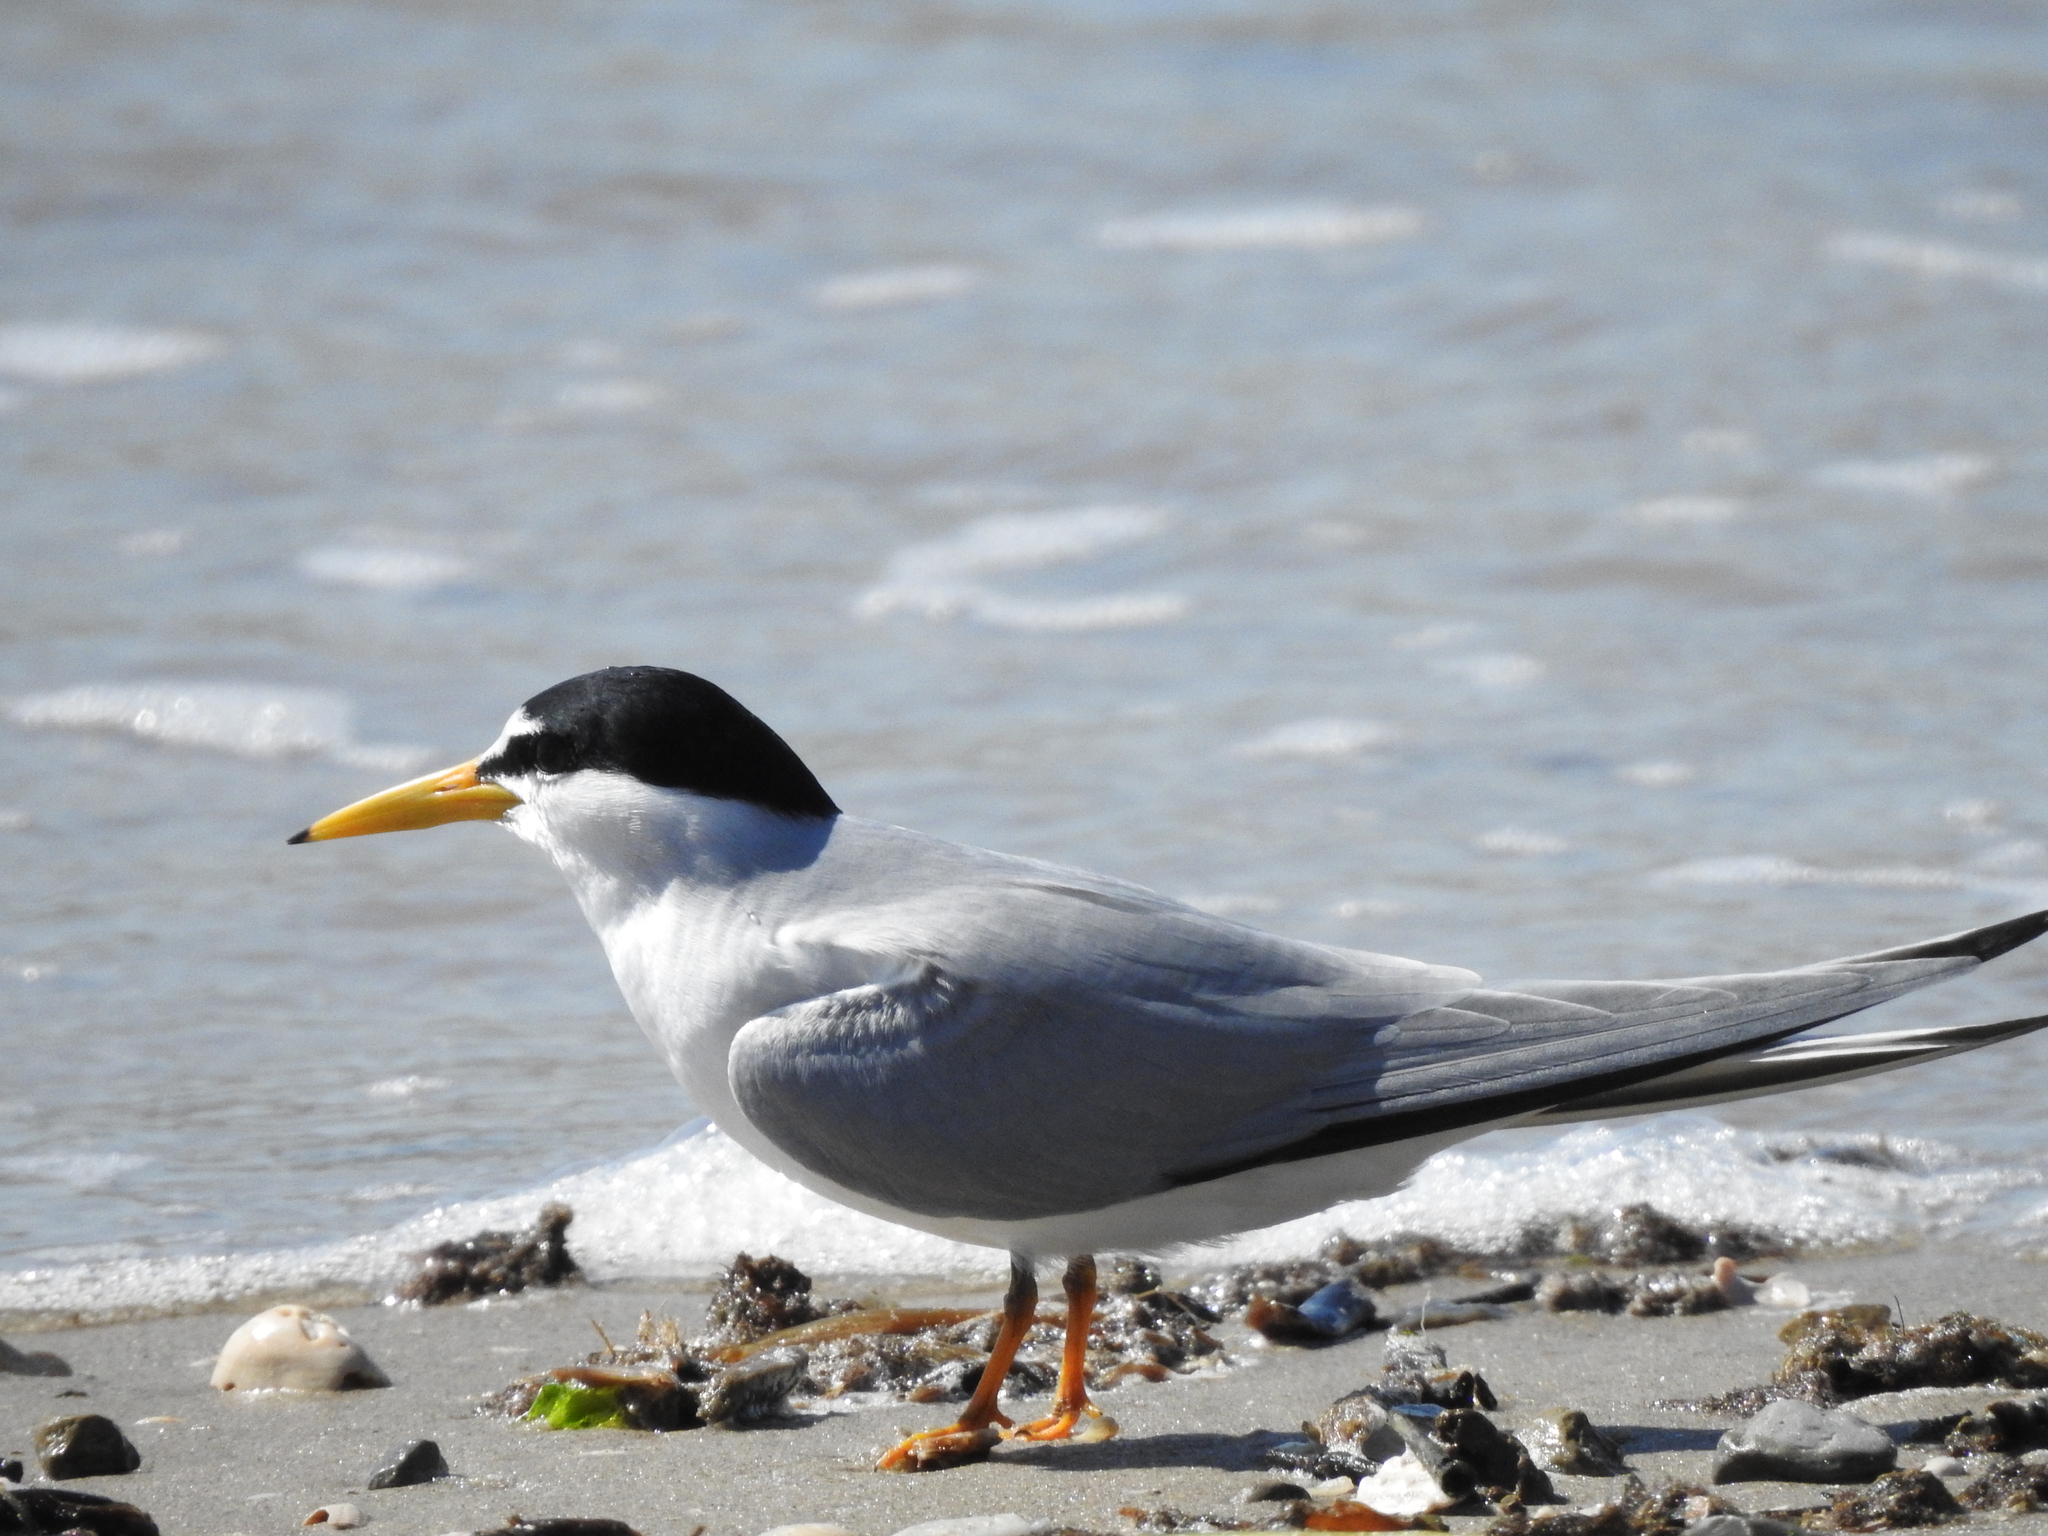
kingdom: Animalia
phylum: Chordata
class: Aves
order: Charadriiformes
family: Laridae
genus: Sternula
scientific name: Sternula antillarum
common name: Least tern
